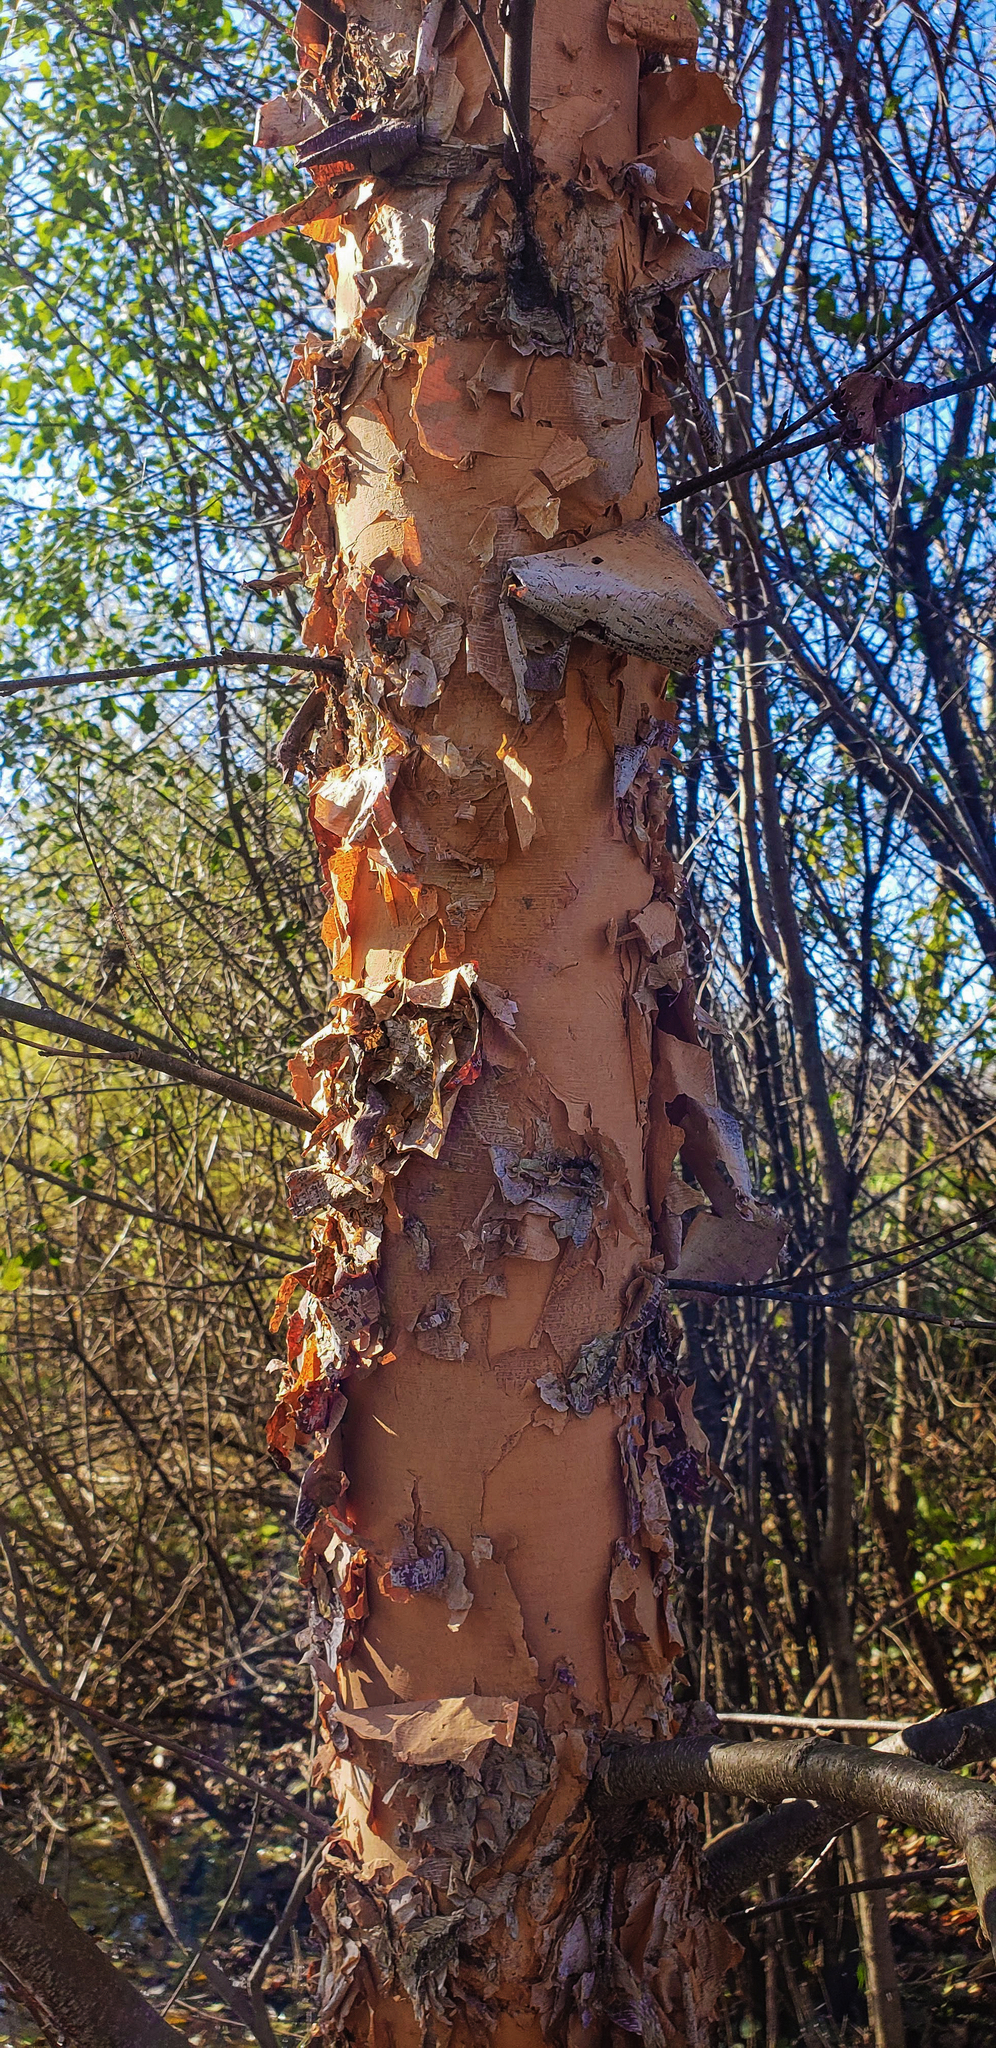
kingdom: Plantae
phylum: Tracheophyta
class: Magnoliopsida
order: Fagales
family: Betulaceae
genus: Betula
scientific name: Betula nigra
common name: Black birch
